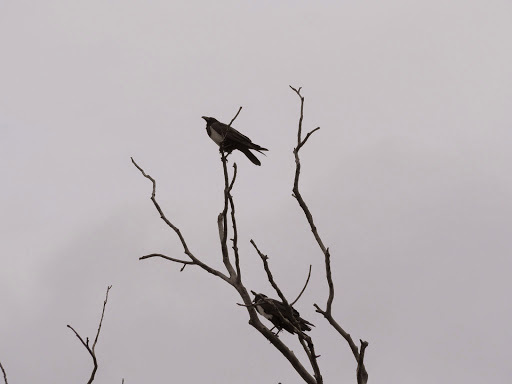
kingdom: Animalia
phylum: Chordata
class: Aves
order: Passeriformes
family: Corvidae
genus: Corvus
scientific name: Corvus albus
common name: Pied crow
